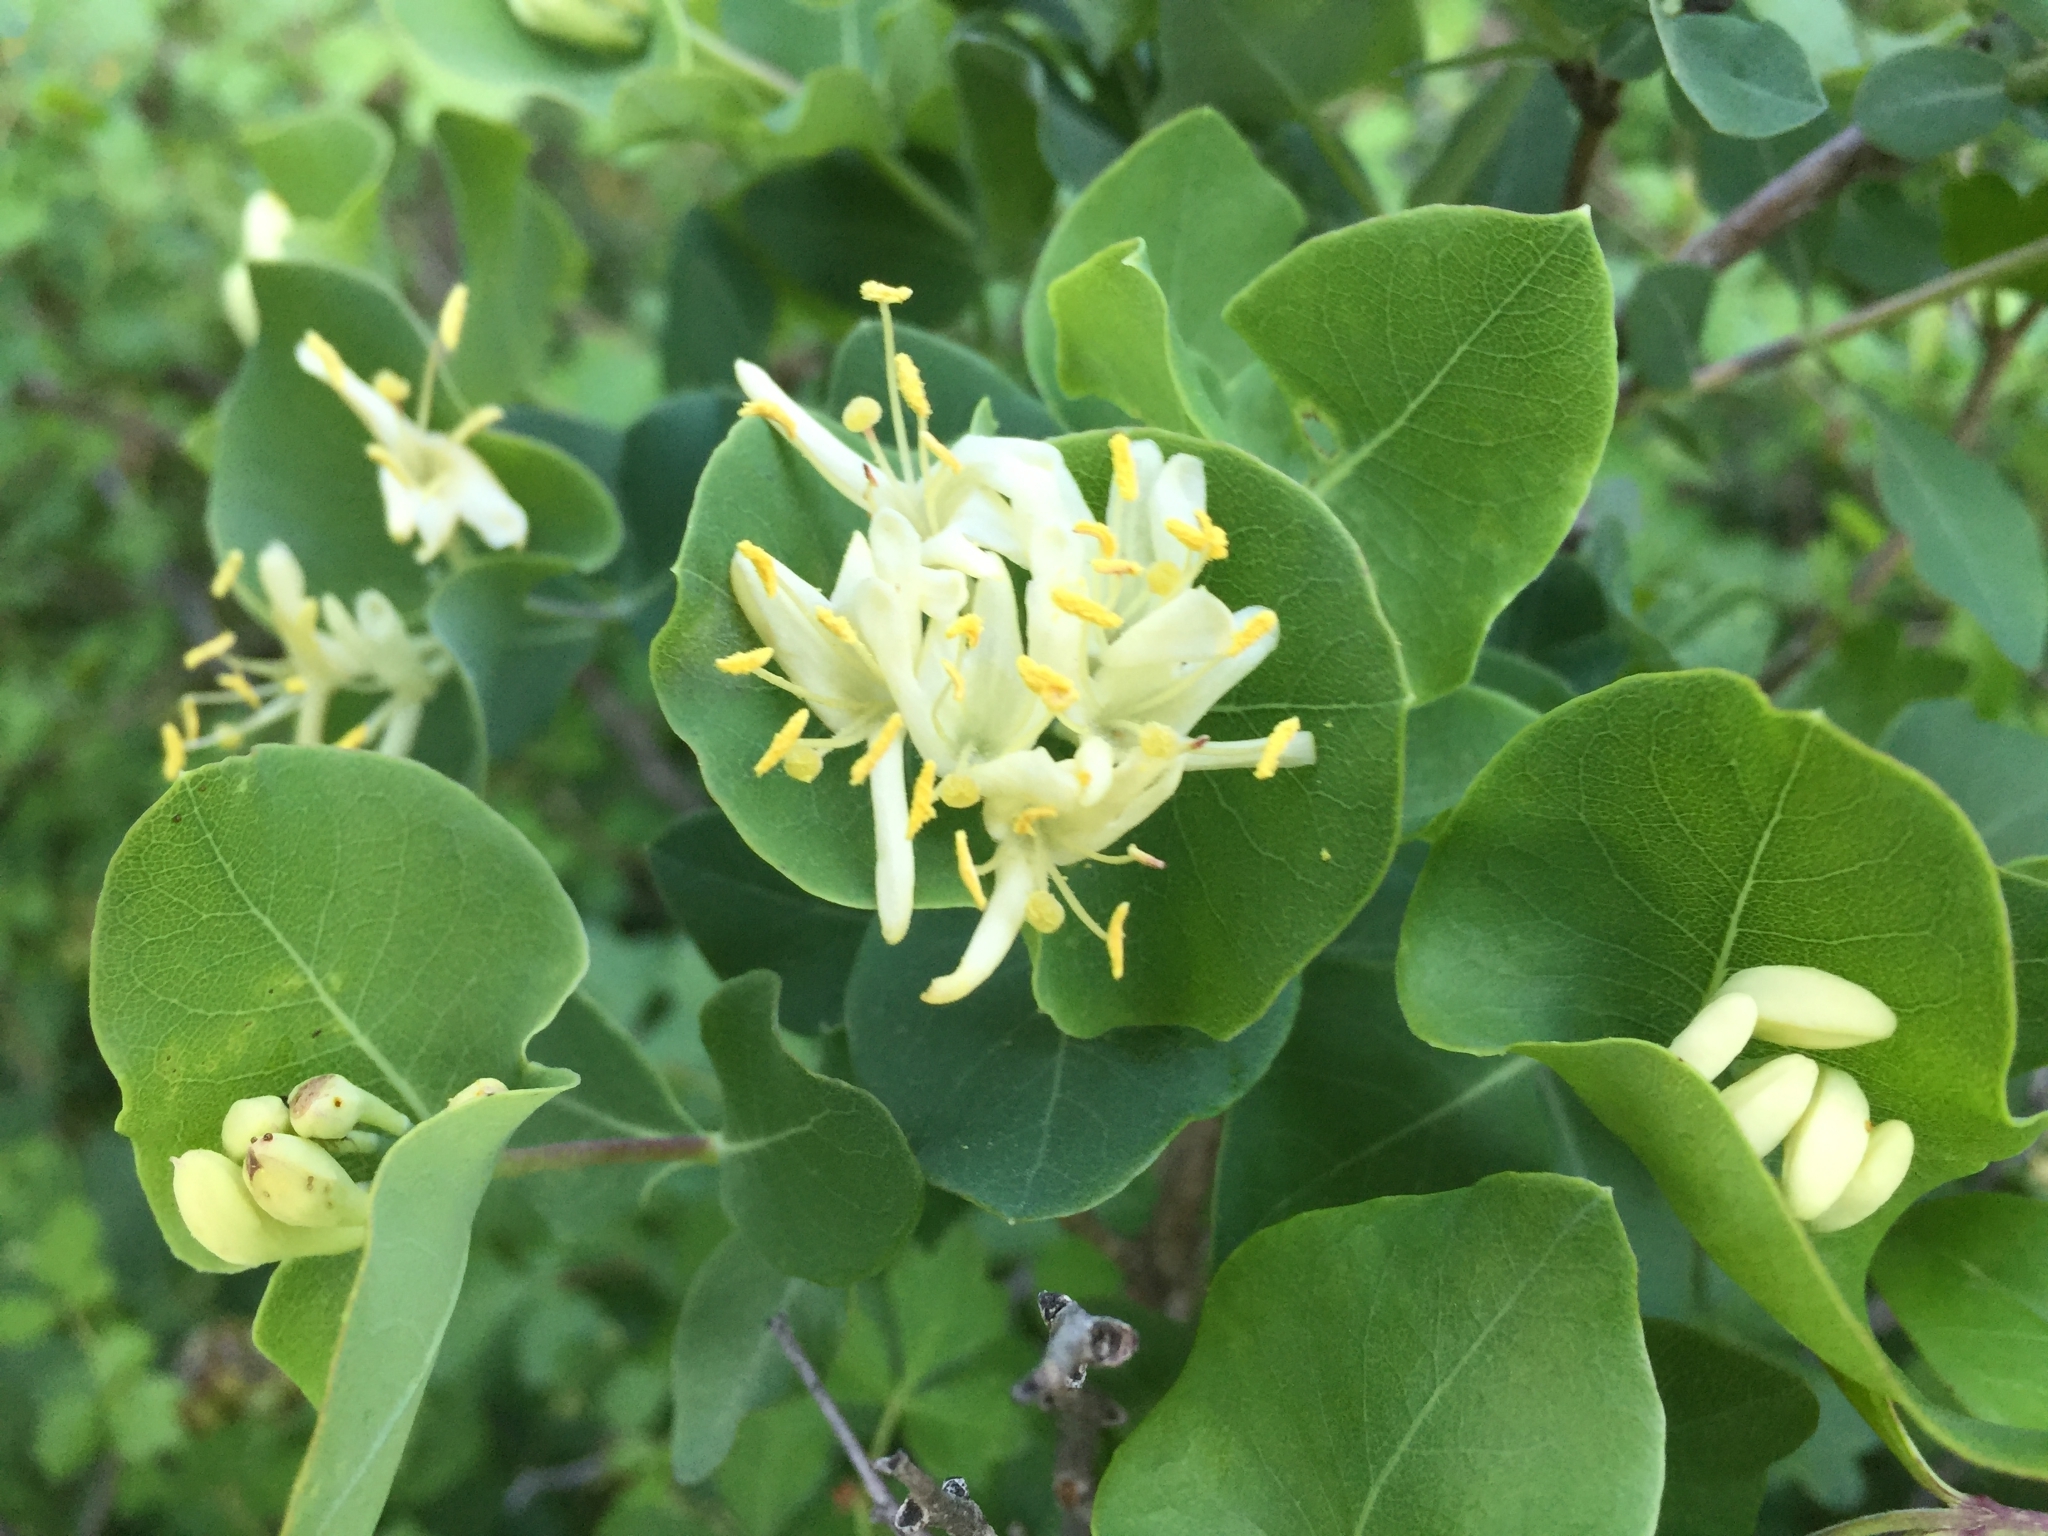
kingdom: Plantae
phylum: Tracheophyta
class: Magnoliopsida
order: Dipsacales
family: Caprifoliaceae
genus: Lonicera
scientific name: Lonicera albiflora
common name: White honeysuckle
